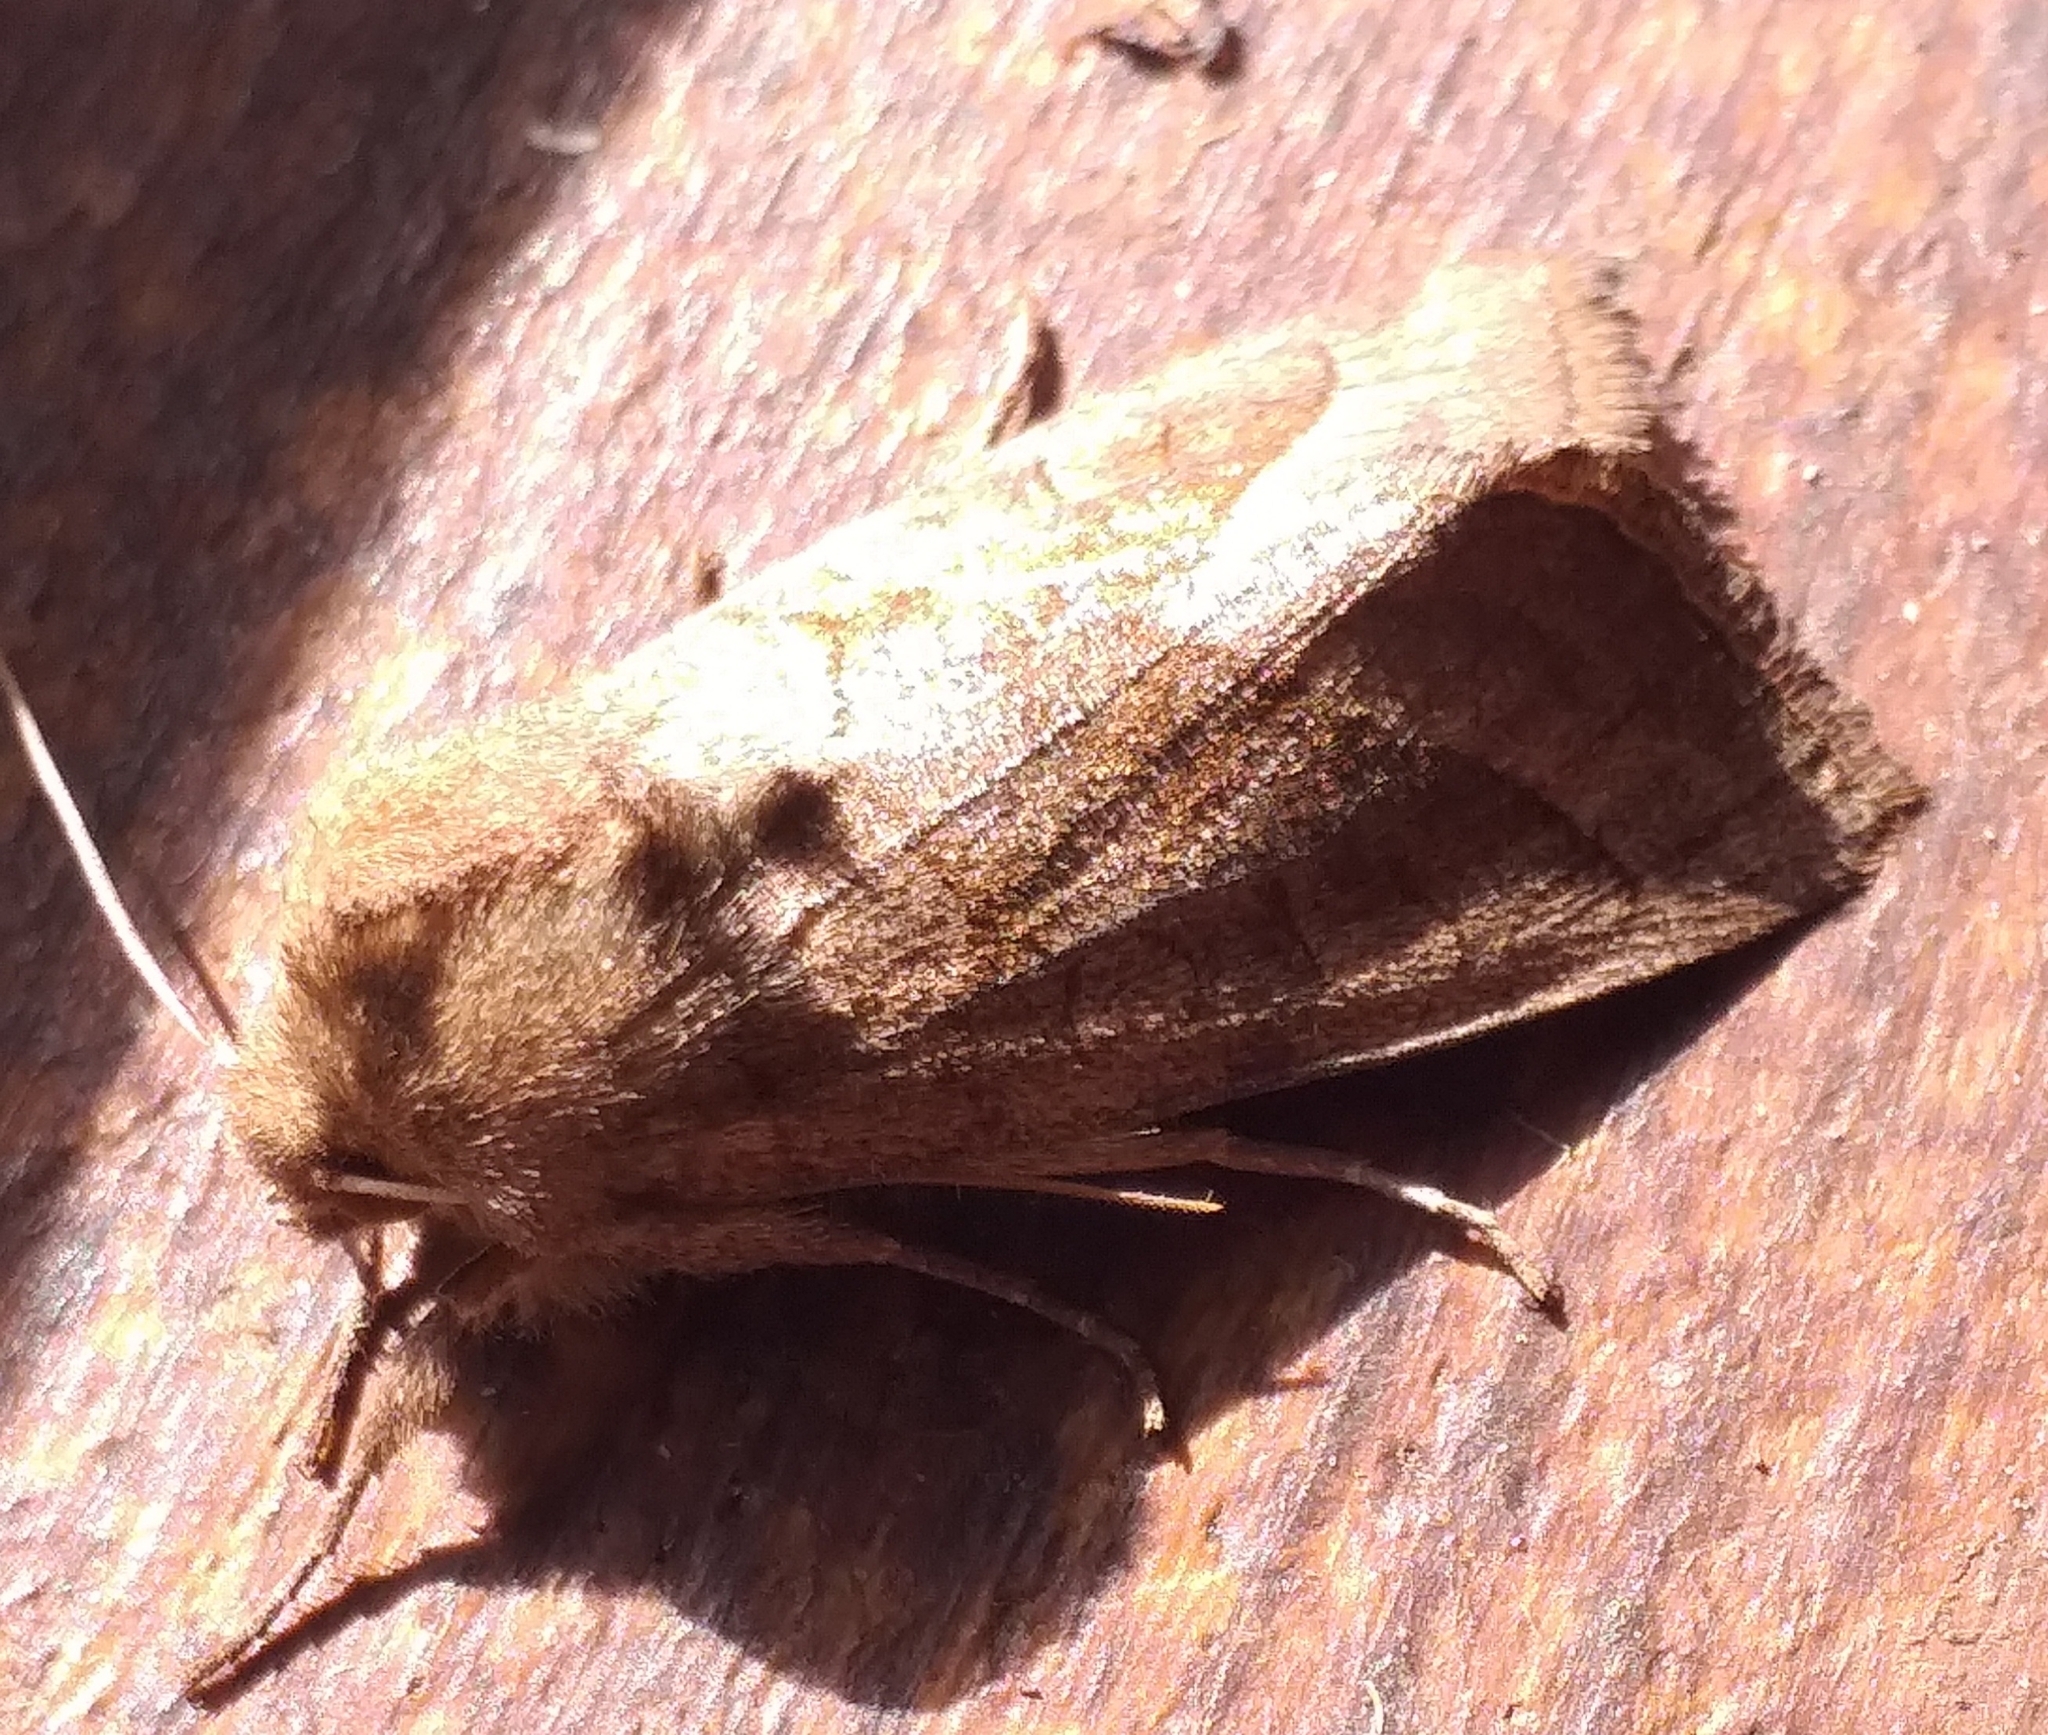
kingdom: Animalia
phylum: Arthropoda
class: Insecta
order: Lepidoptera
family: Noctuidae
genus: Hydraecia
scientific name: Hydraecia micacea
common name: Rosy rustic
